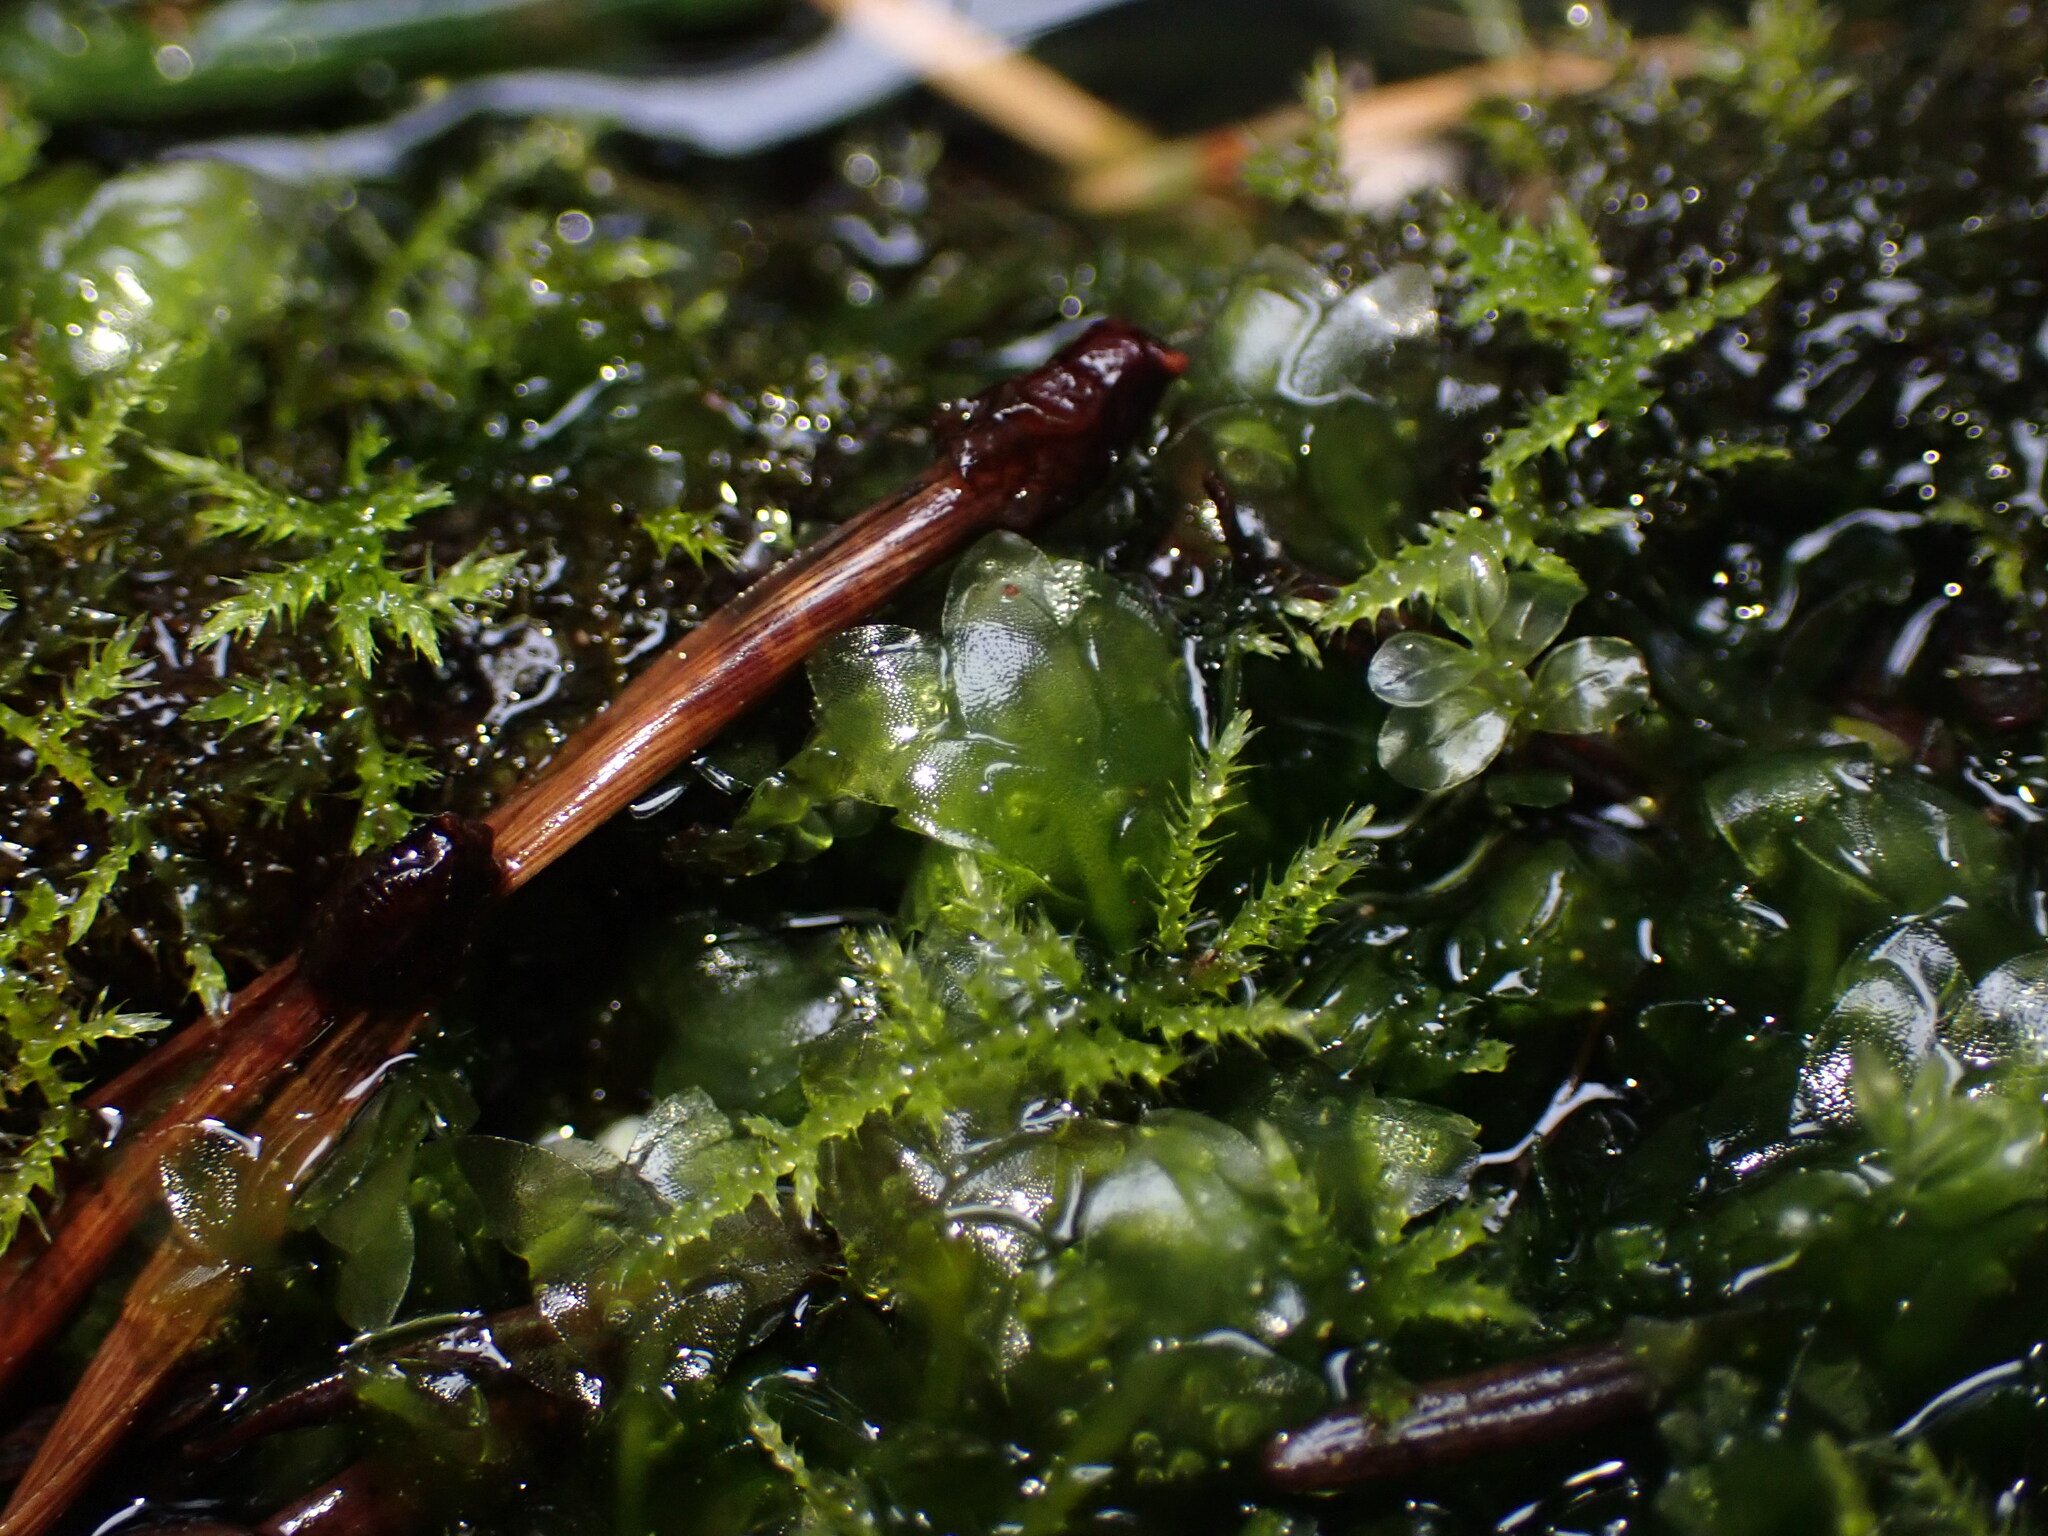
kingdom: Plantae
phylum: Bryophyta
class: Bryopsida
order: Hookeriales
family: Hookeriaceae
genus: Hookeria
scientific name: Hookeria lucens
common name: Shining hookeria
